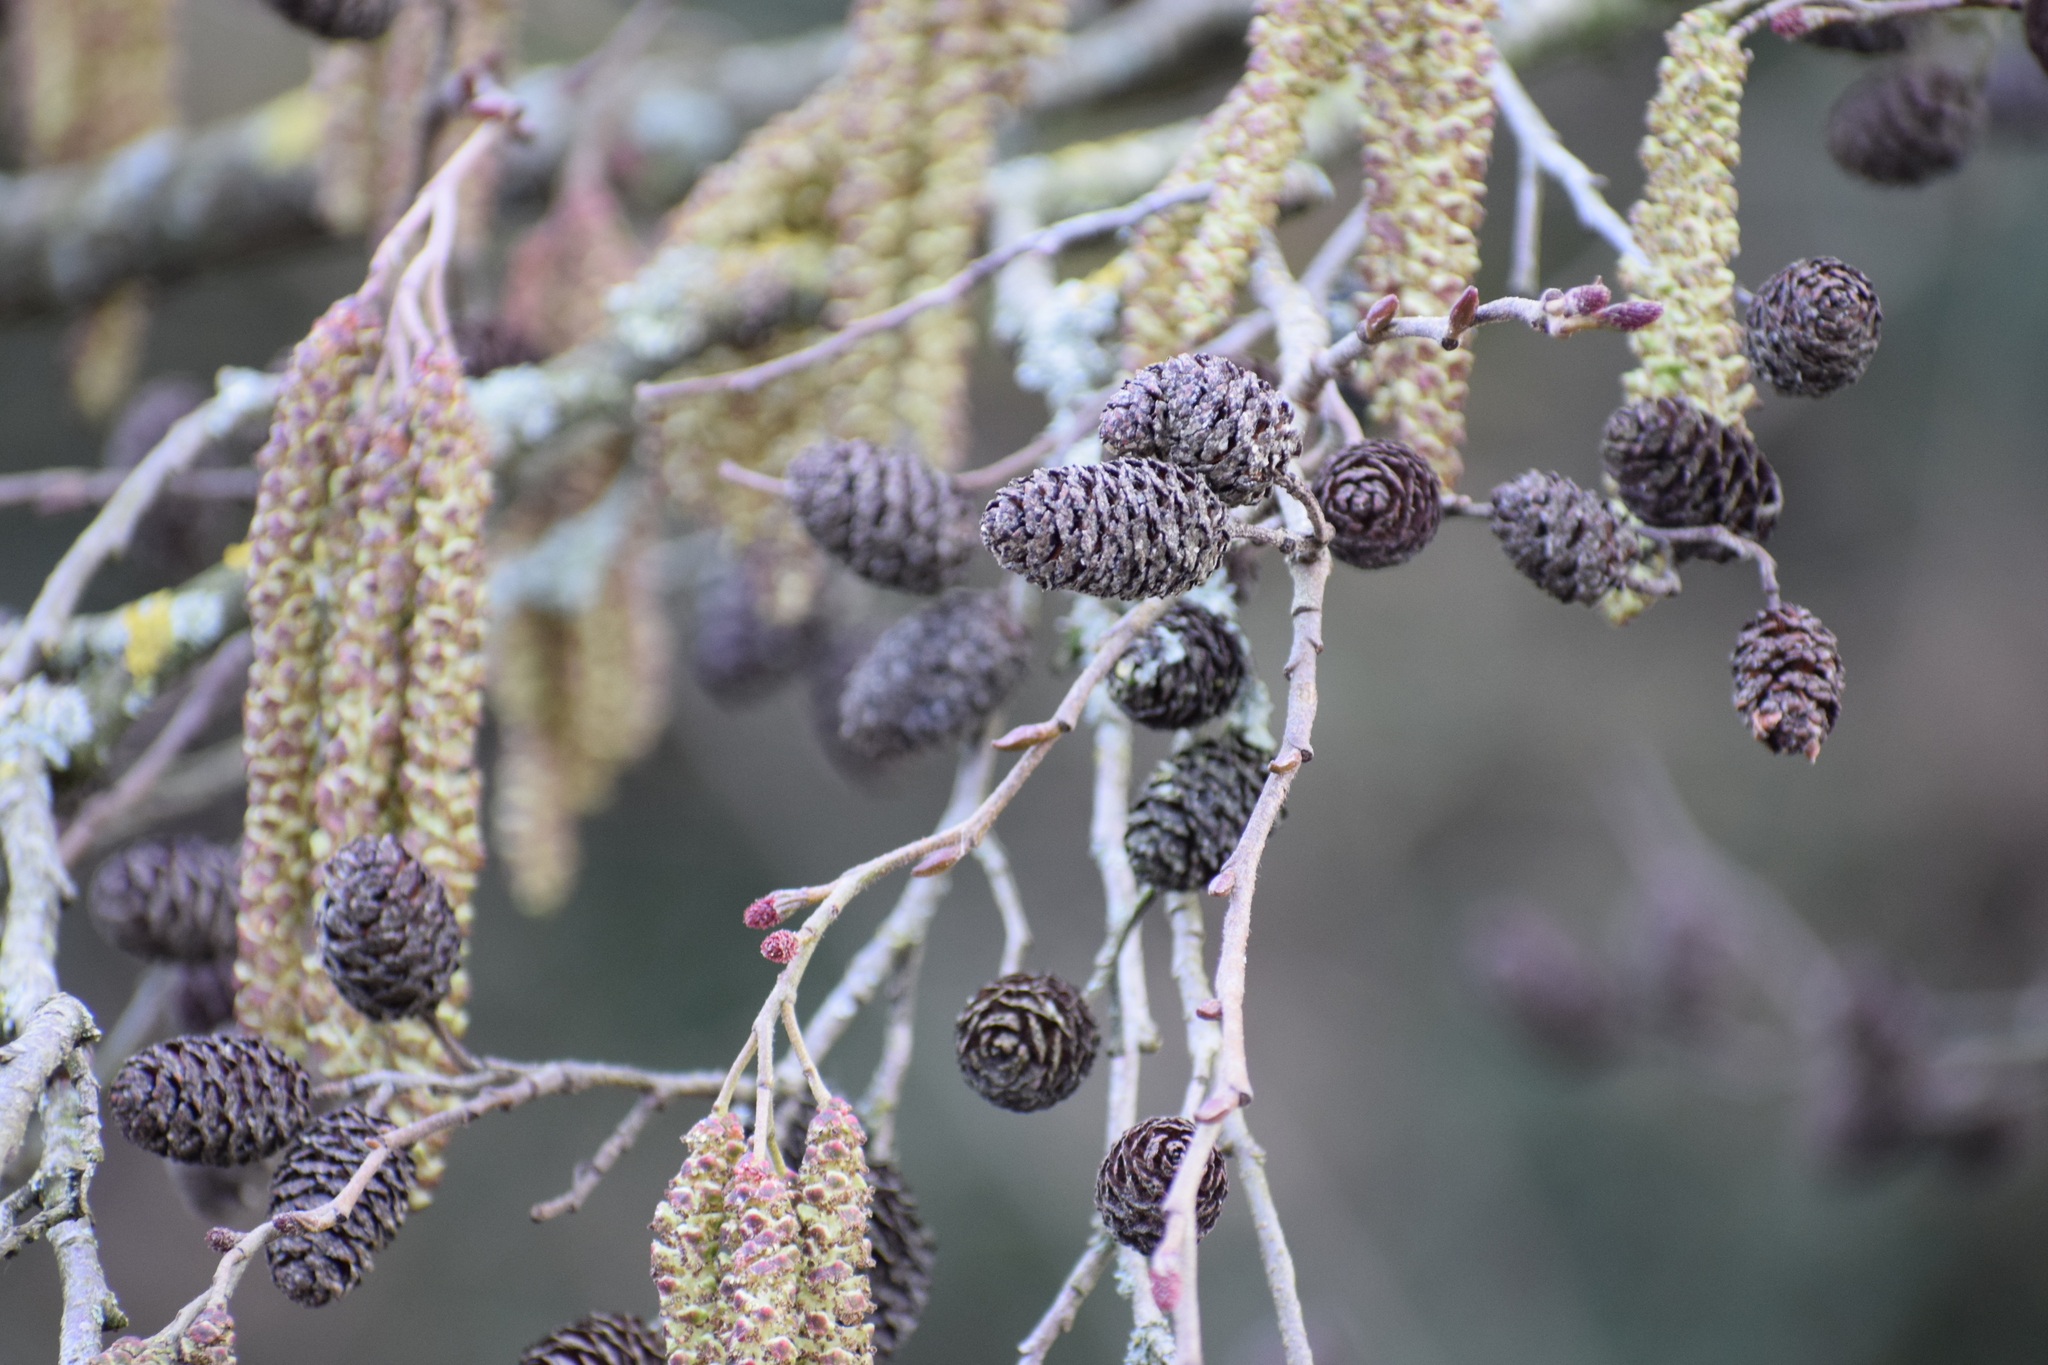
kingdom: Plantae
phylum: Tracheophyta
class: Magnoliopsida
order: Fagales
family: Betulaceae
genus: Alnus
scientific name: Alnus glutinosa
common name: Black alder
